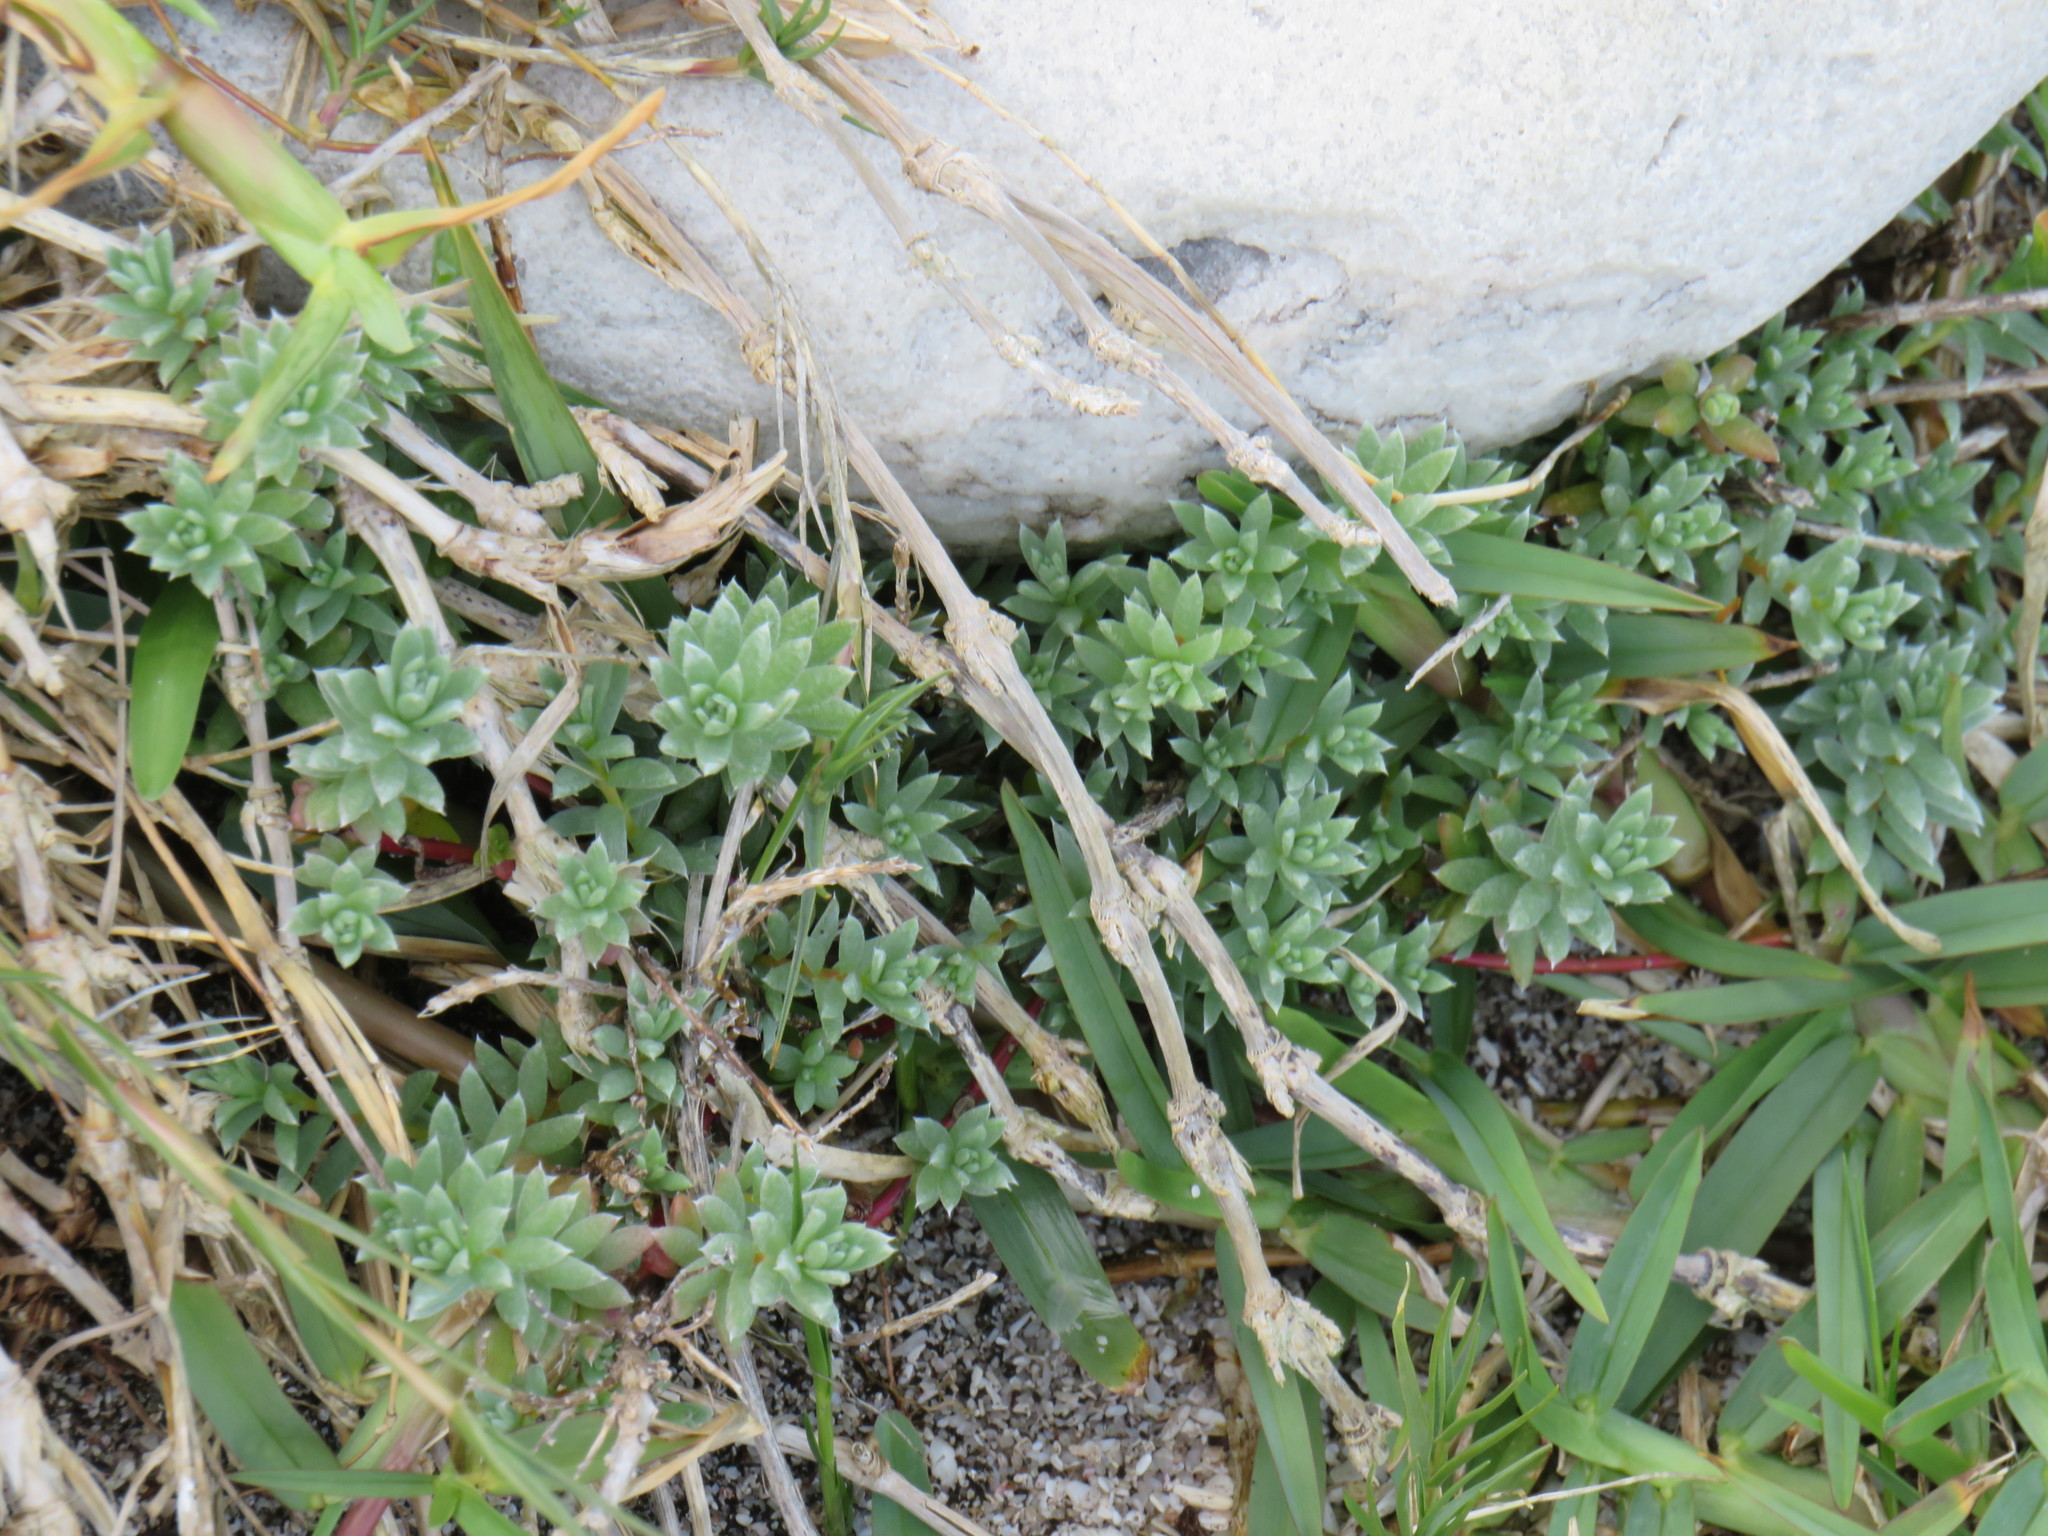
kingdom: Plantae
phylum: Tracheophyta
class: Magnoliopsida
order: Caryophyllales
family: Amaranthaceae
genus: Chenolea
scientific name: Chenolea diffusa
